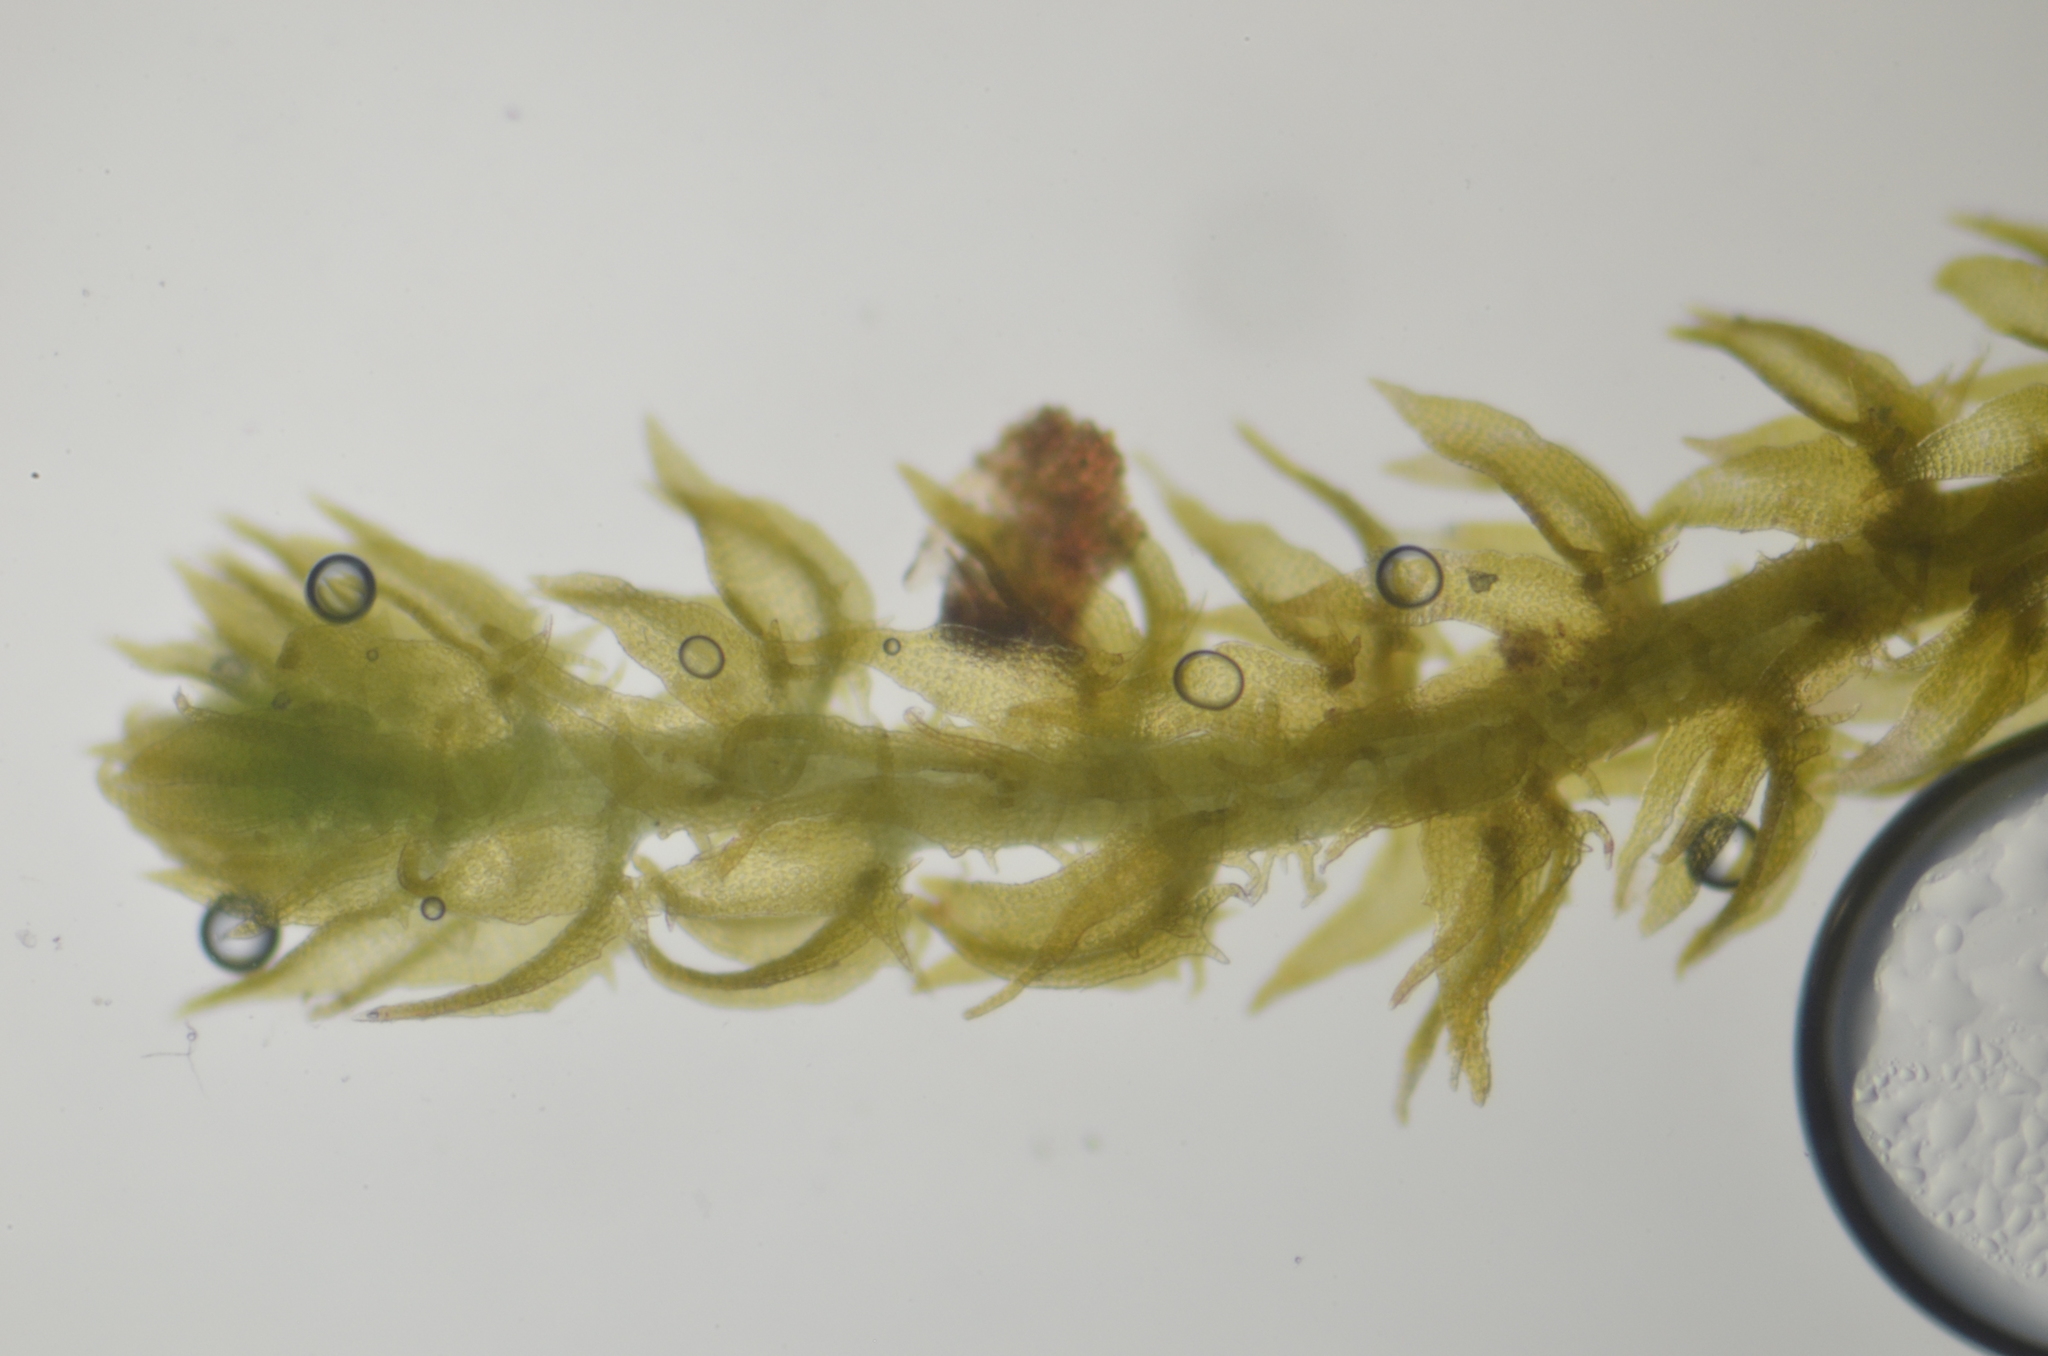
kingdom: Plantae
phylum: Marchantiophyta
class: Jungermanniopsida
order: Jungermanniales
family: Anastrophyllaceae
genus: Tetralophozia
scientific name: Tetralophozia filiformis
